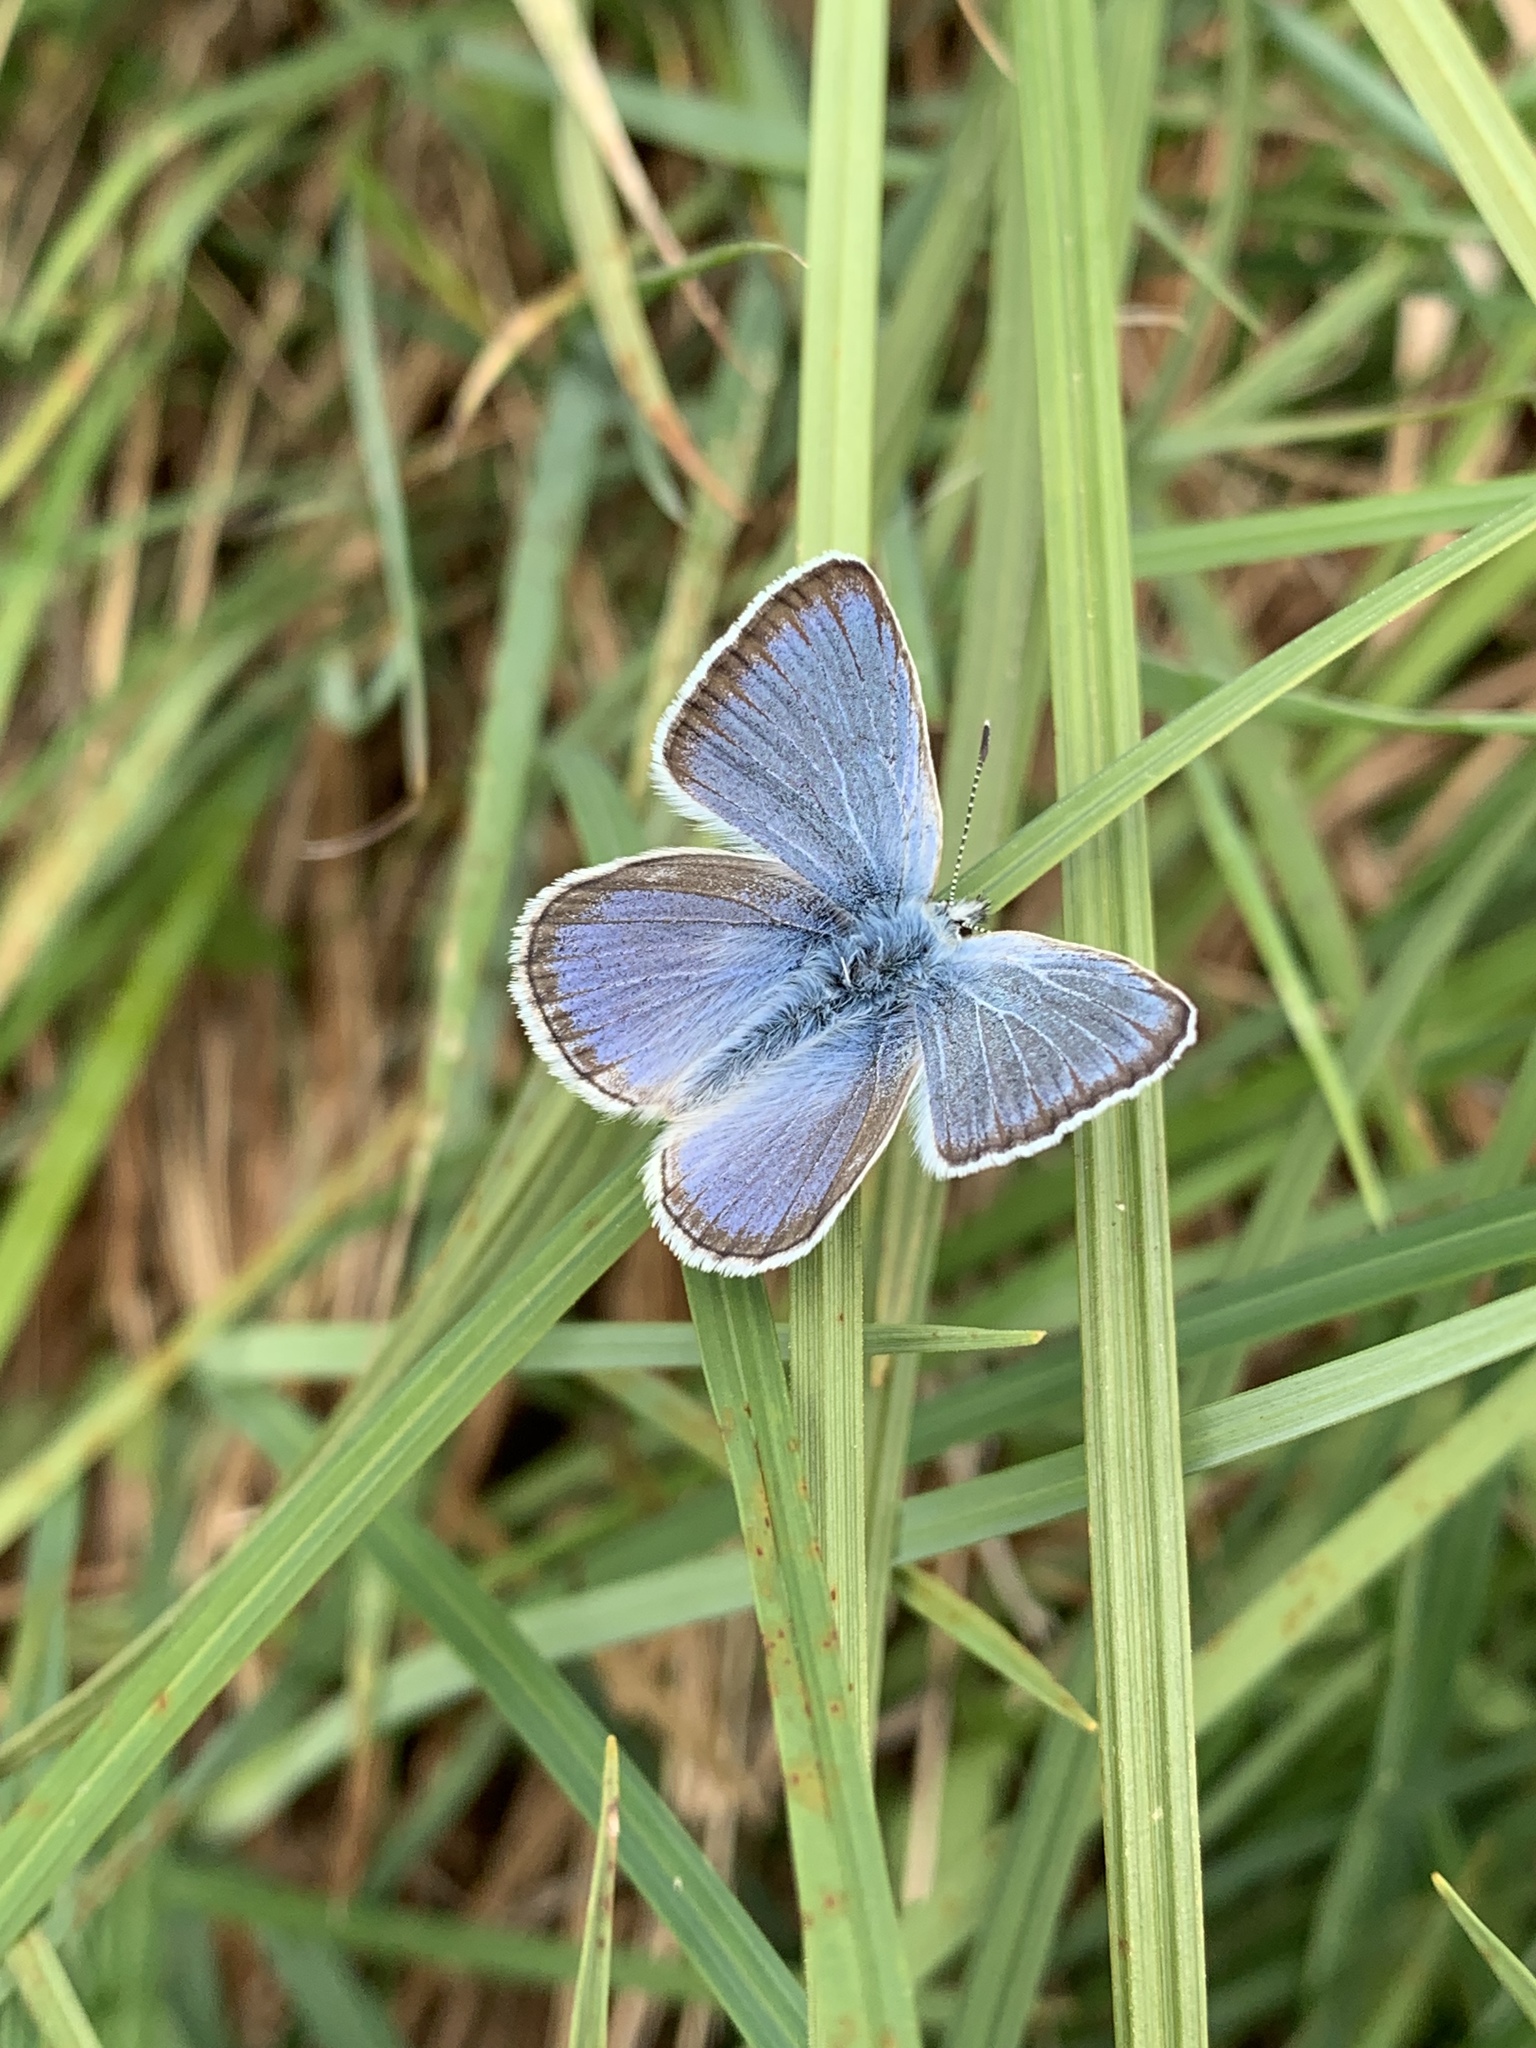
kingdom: Animalia
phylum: Arthropoda
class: Insecta
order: Lepidoptera
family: Lycaenidae
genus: Icaricia
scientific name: Icaricia icarioides
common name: Boisduval's blue
